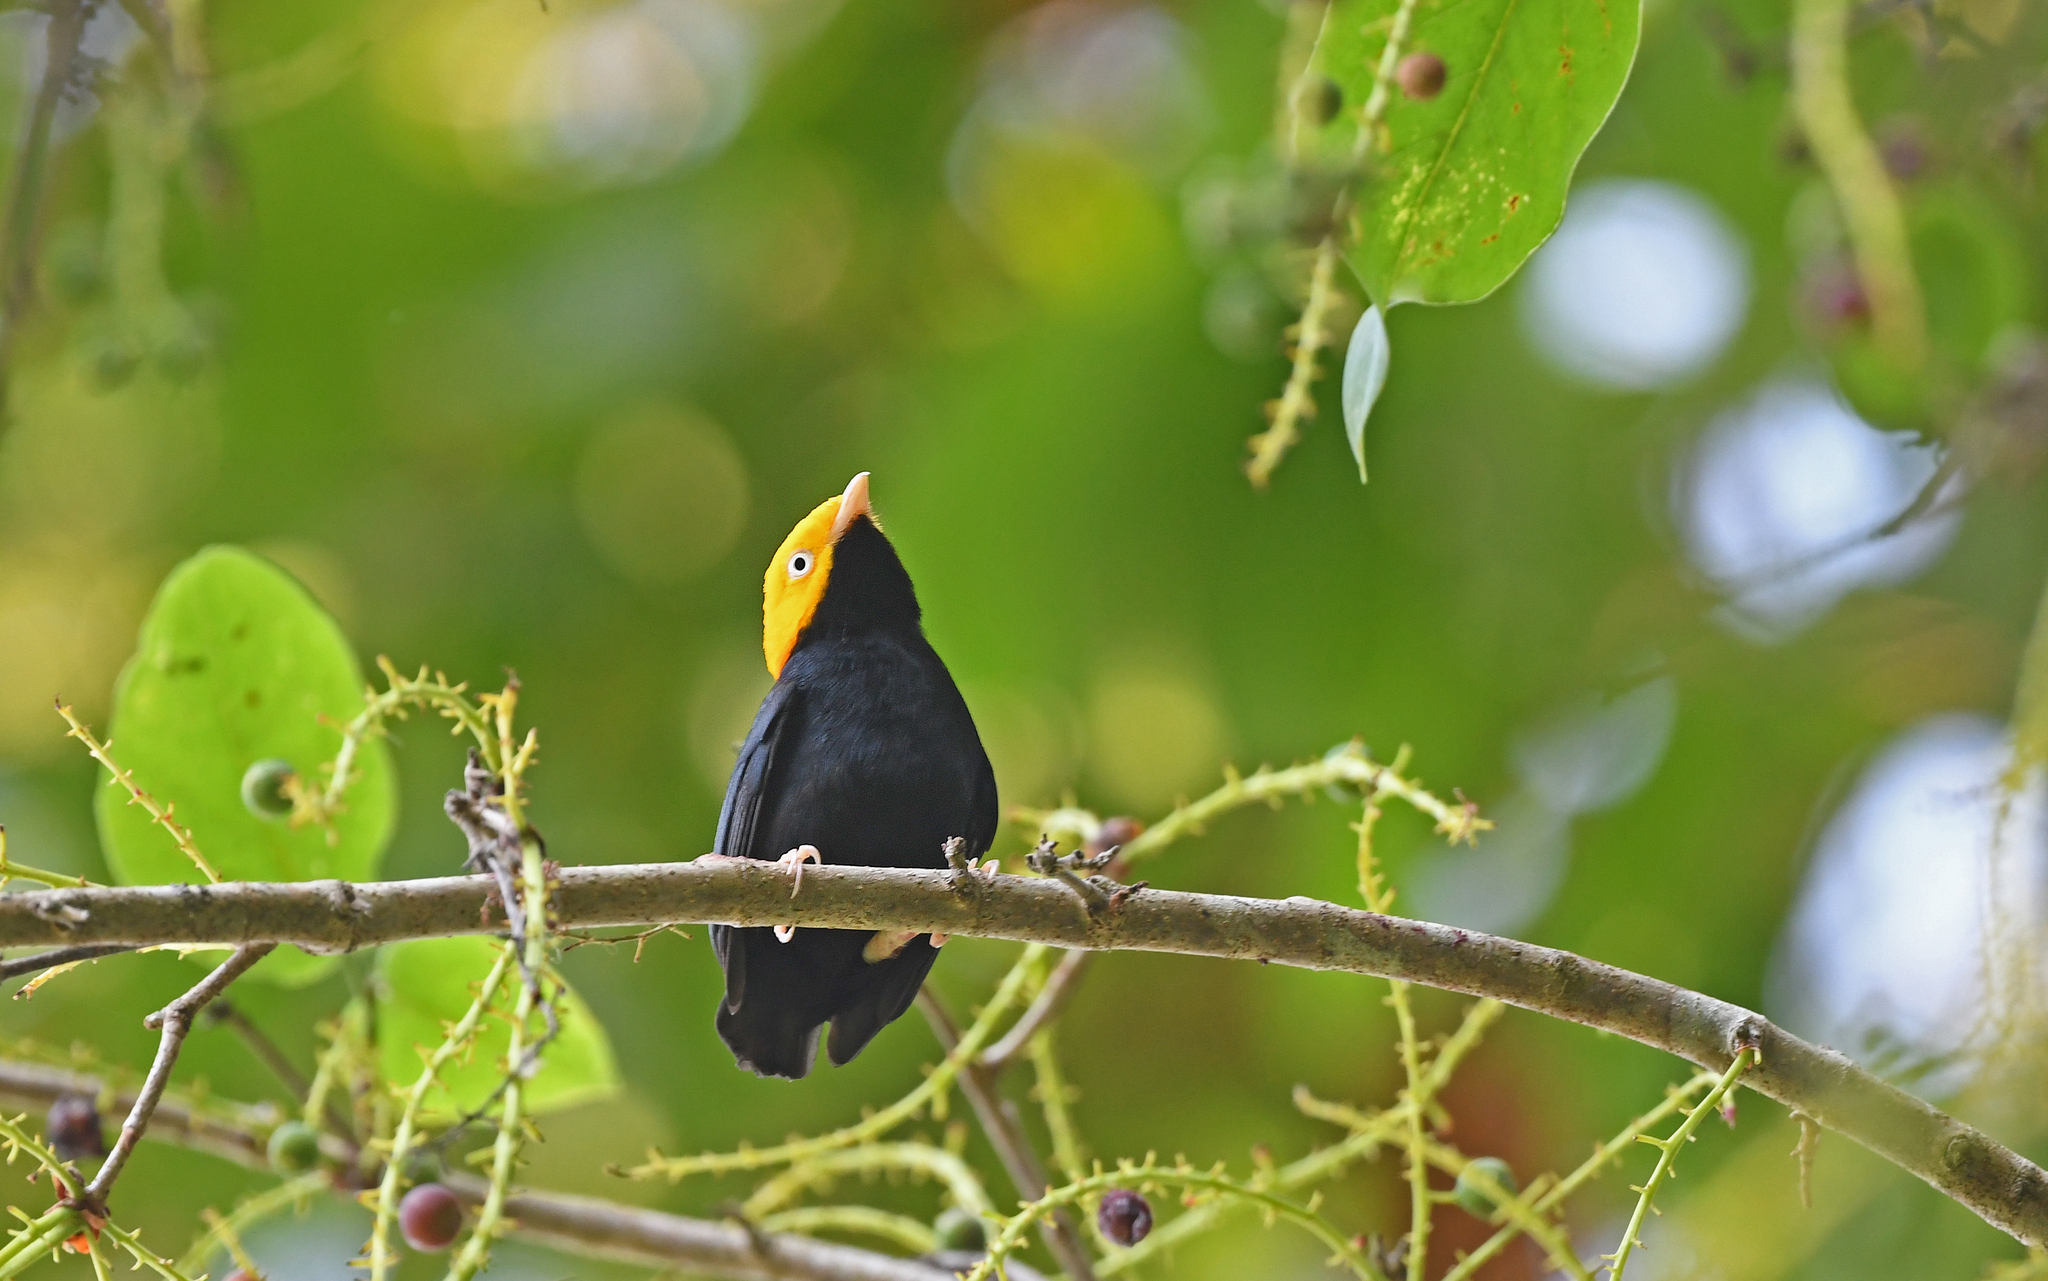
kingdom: Animalia
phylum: Chordata
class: Aves
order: Passeriformes
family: Pipridae
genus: Pipra
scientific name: Pipra erythrocephala
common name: Golden-headed manakin
